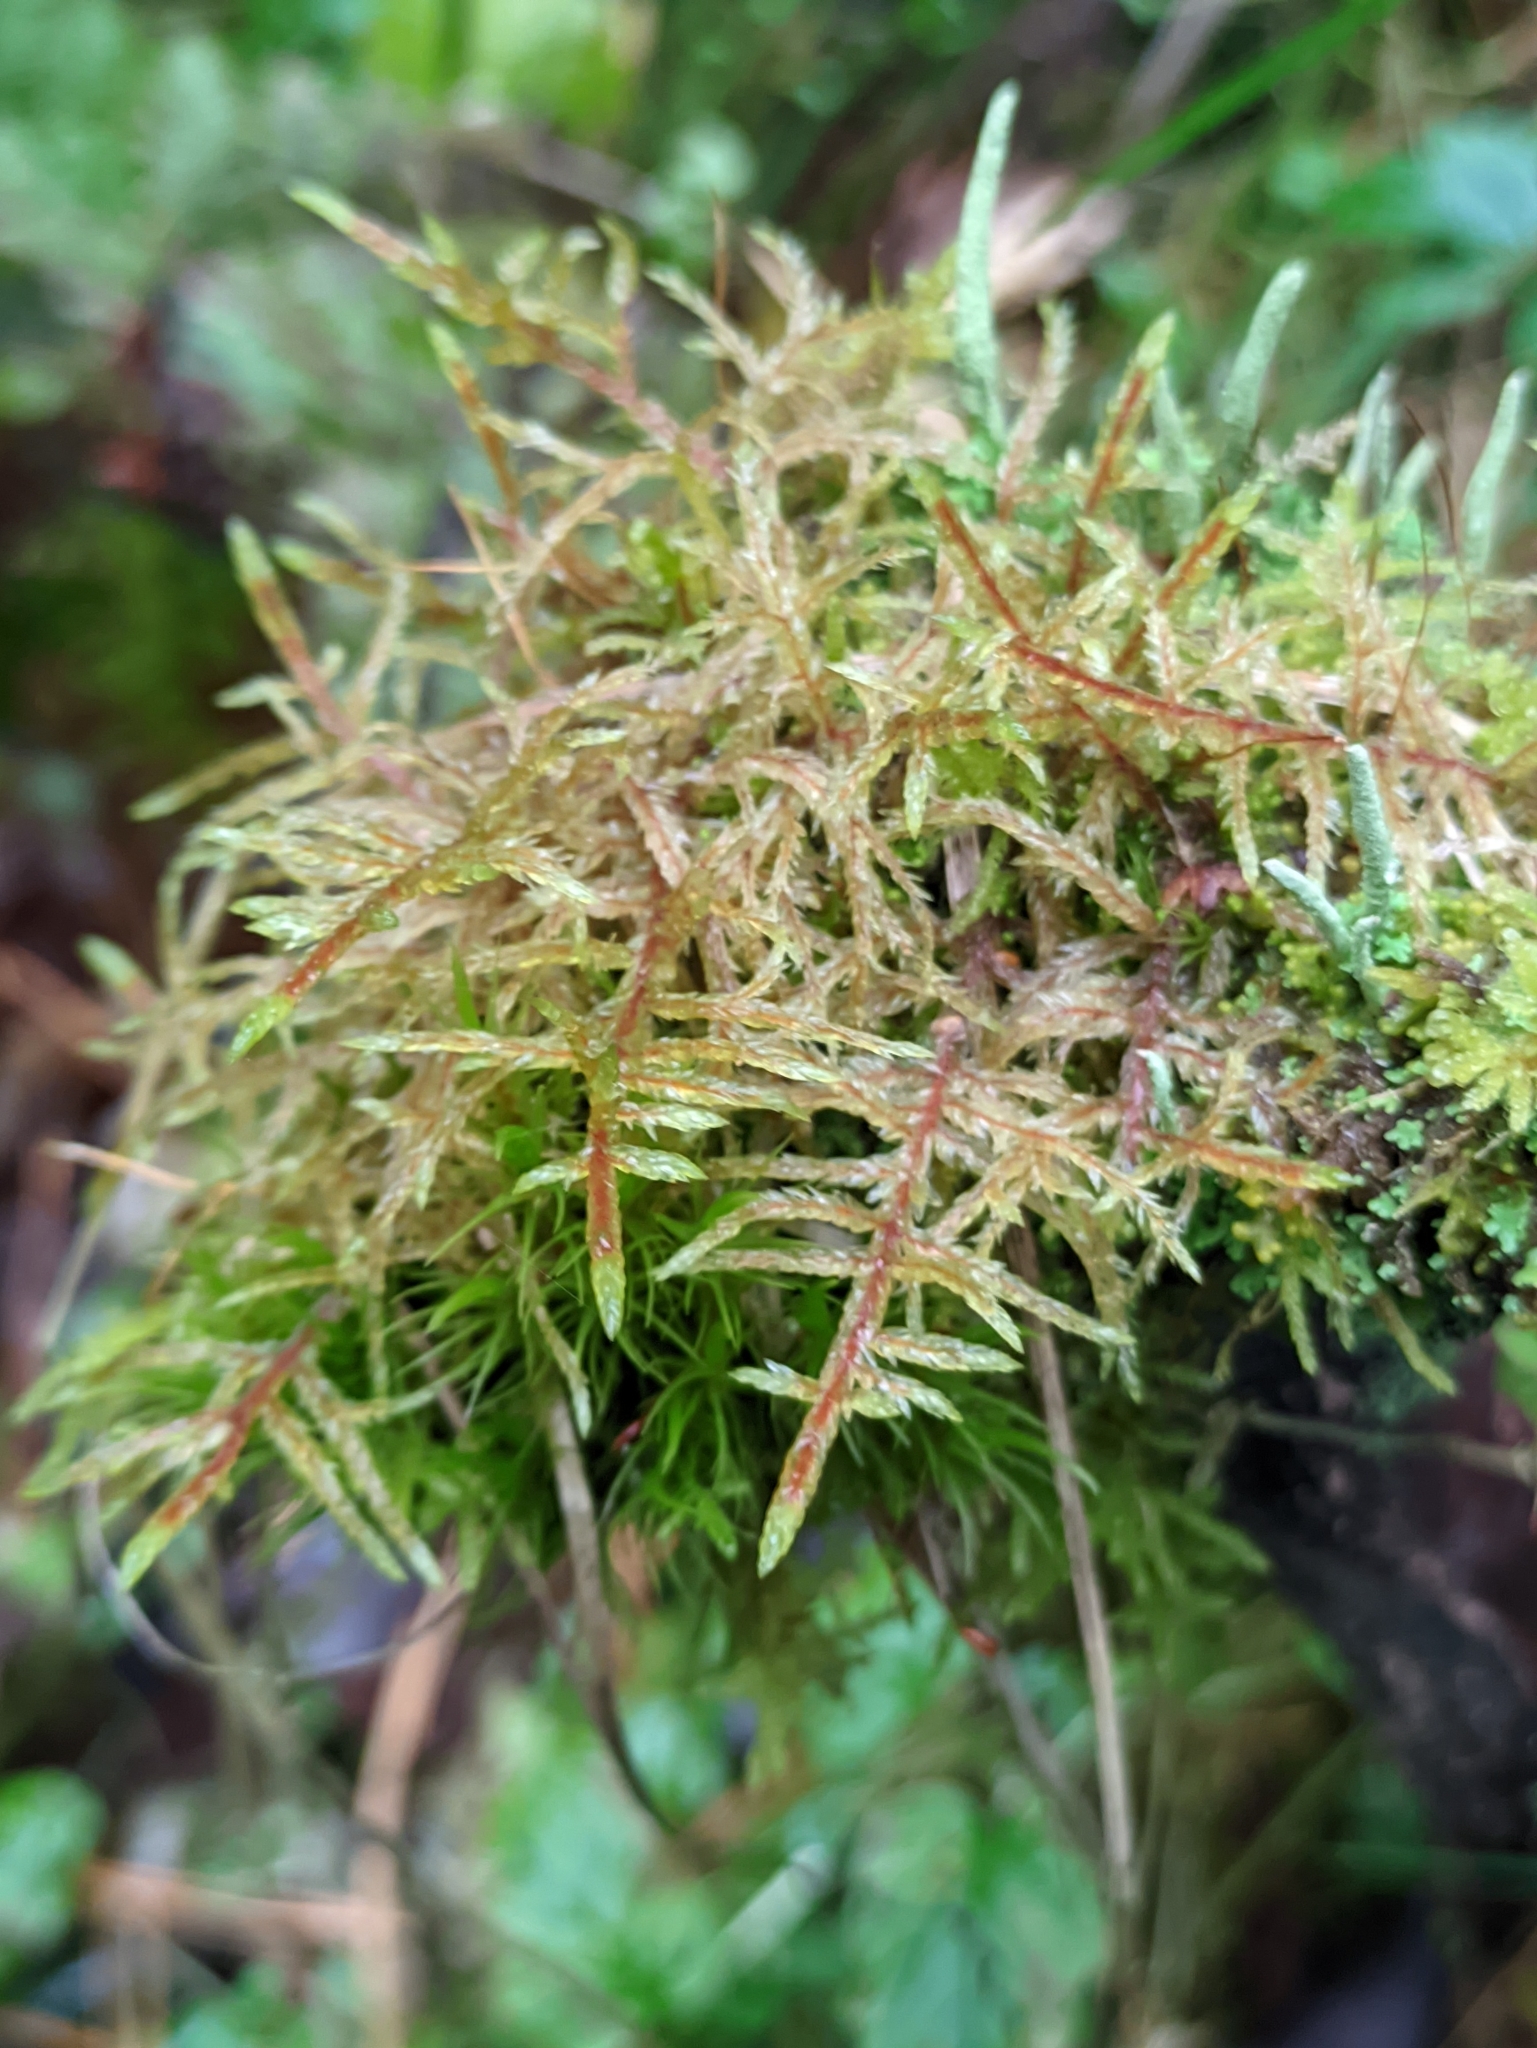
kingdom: Plantae
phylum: Bryophyta
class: Bryopsida
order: Hypnales
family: Hylocomiaceae
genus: Pleurozium
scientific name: Pleurozium schreberi
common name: Red-stemmed feather moss
